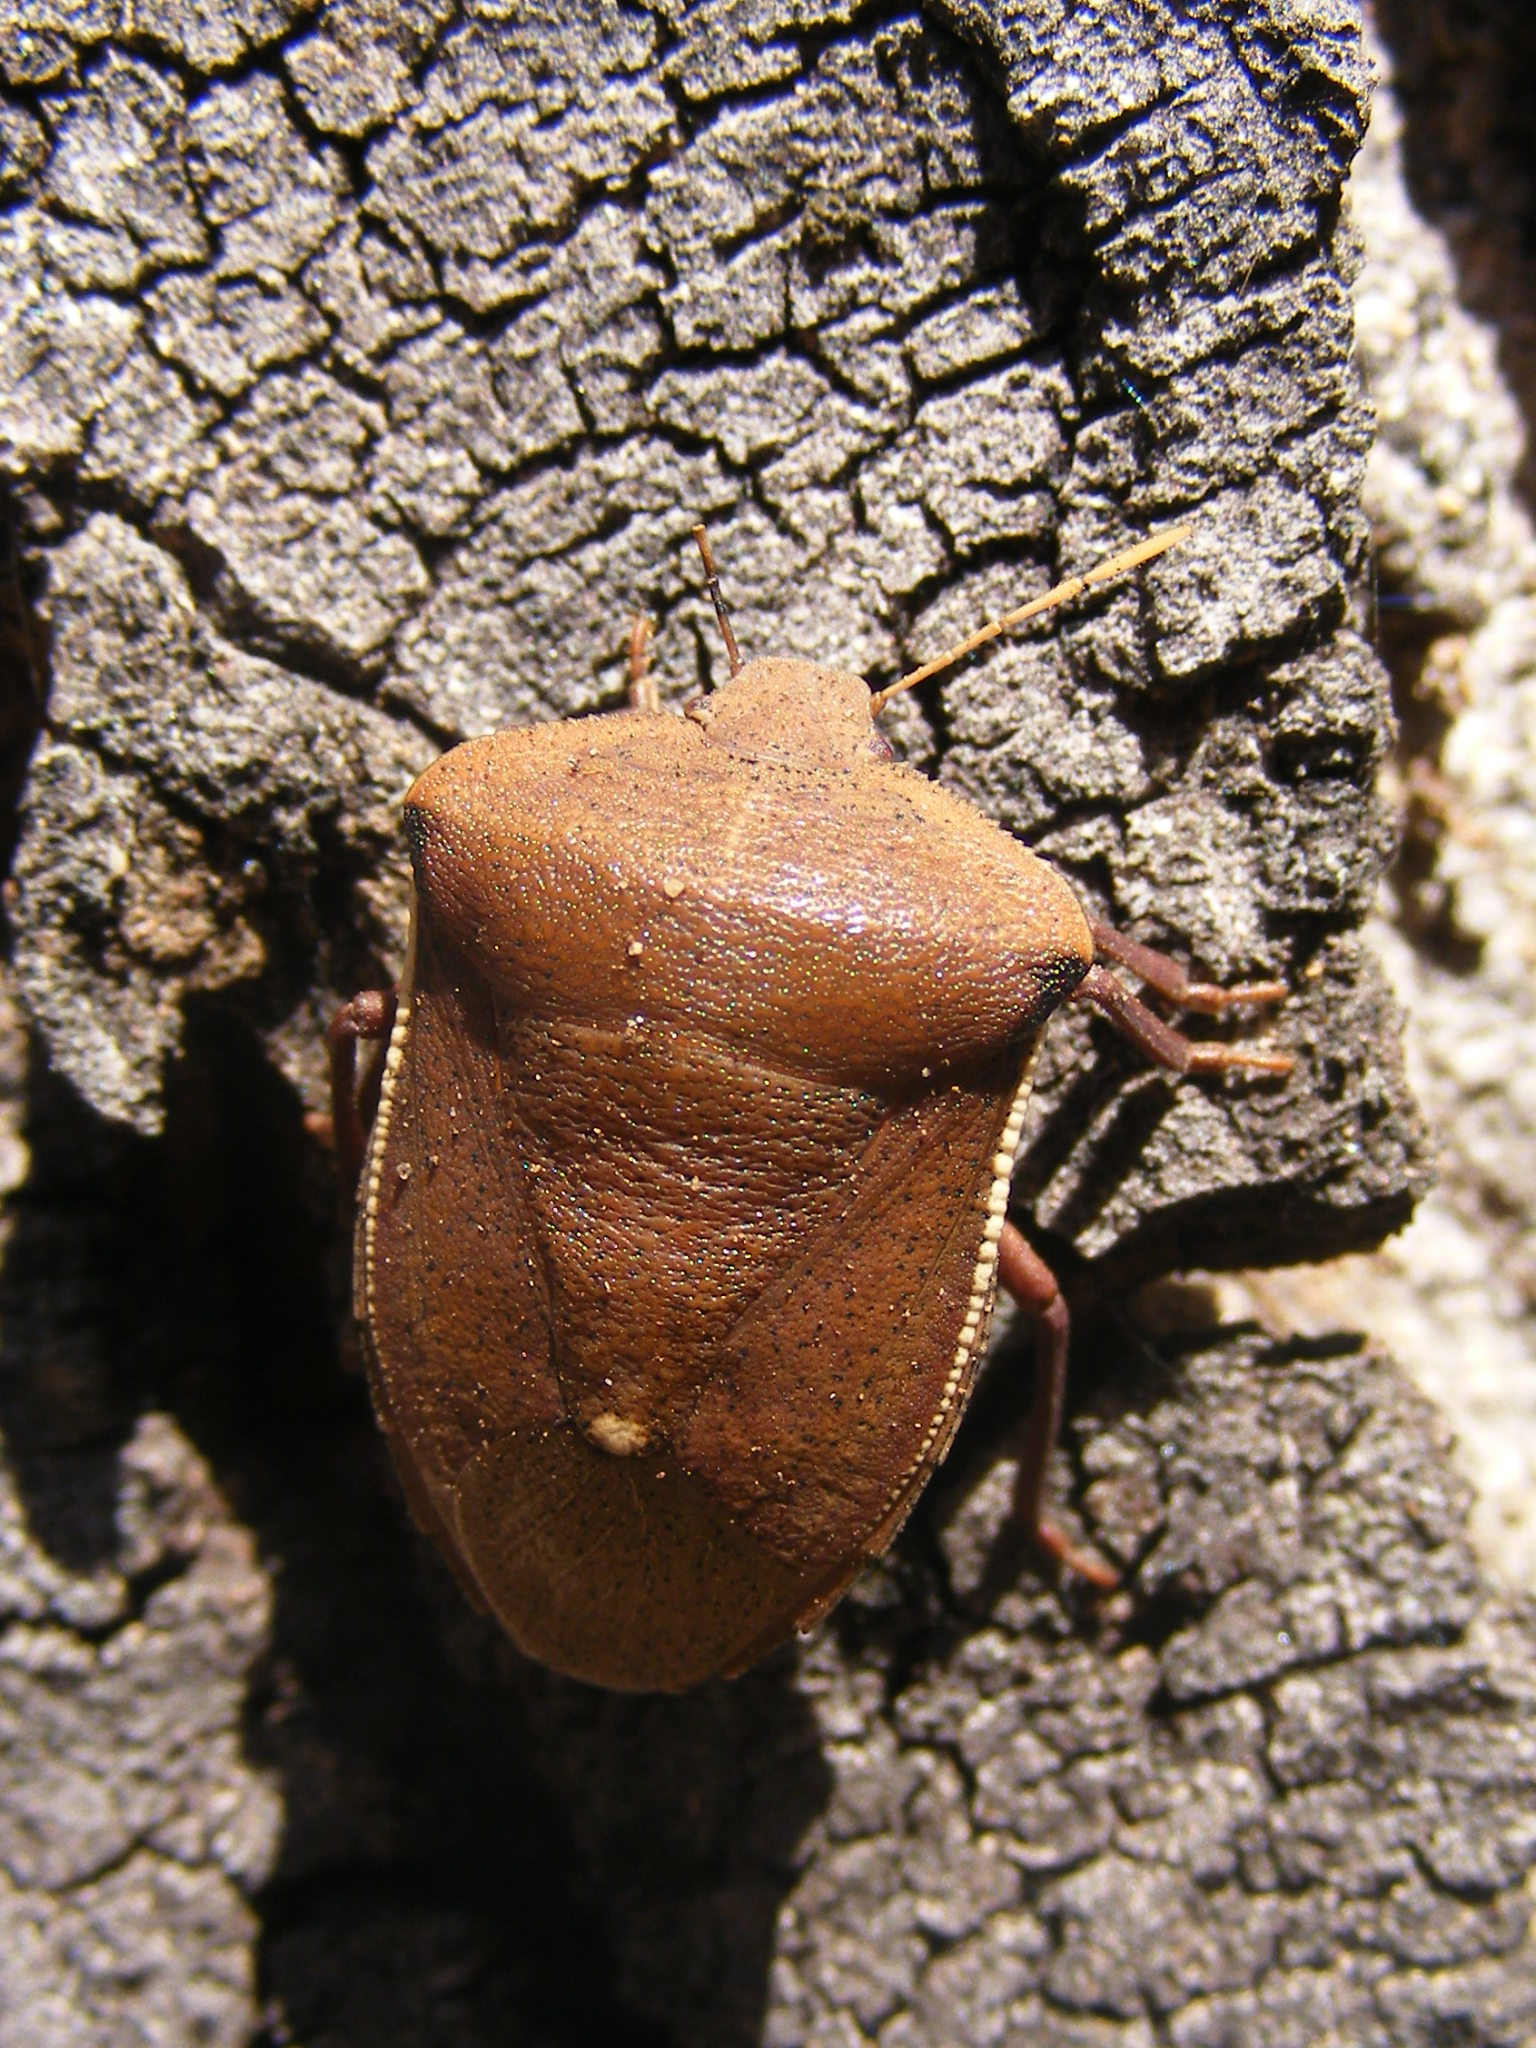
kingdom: Animalia
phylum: Arthropoda
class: Insecta
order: Hemiptera
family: Pentatomidae
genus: Basicryptus
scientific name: Basicryptus costalis
